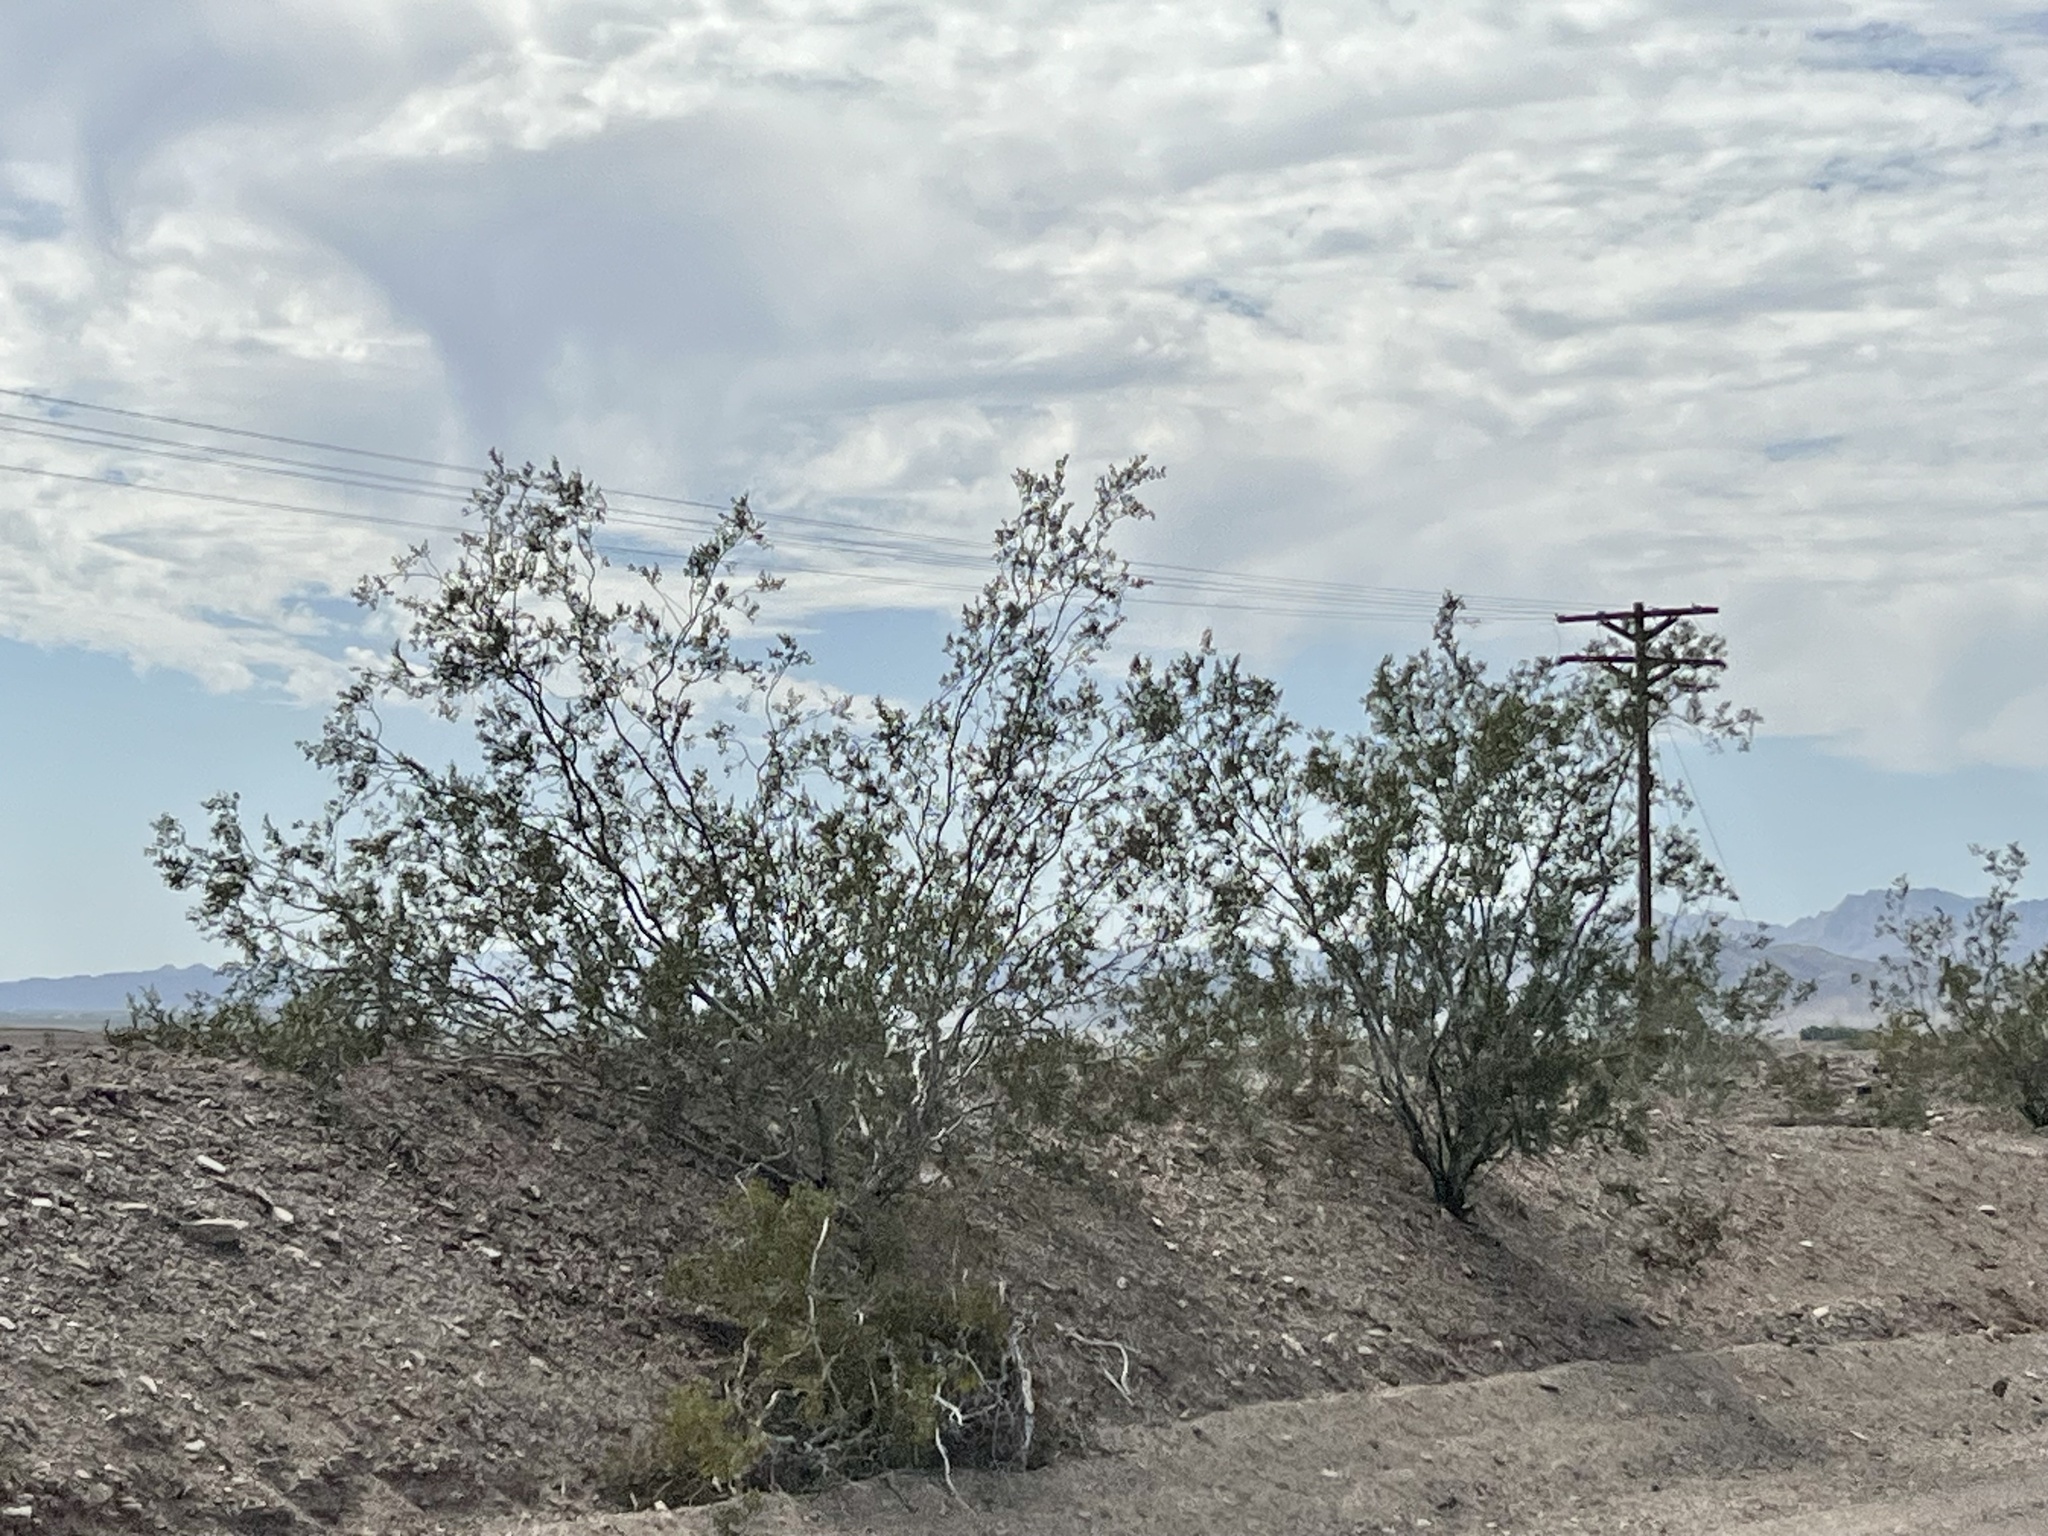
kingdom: Plantae
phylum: Tracheophyta
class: Magnoliopsida
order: Zygophyllales
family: Zygophyllaceae
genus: Larrea
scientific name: Larrea tridentata
